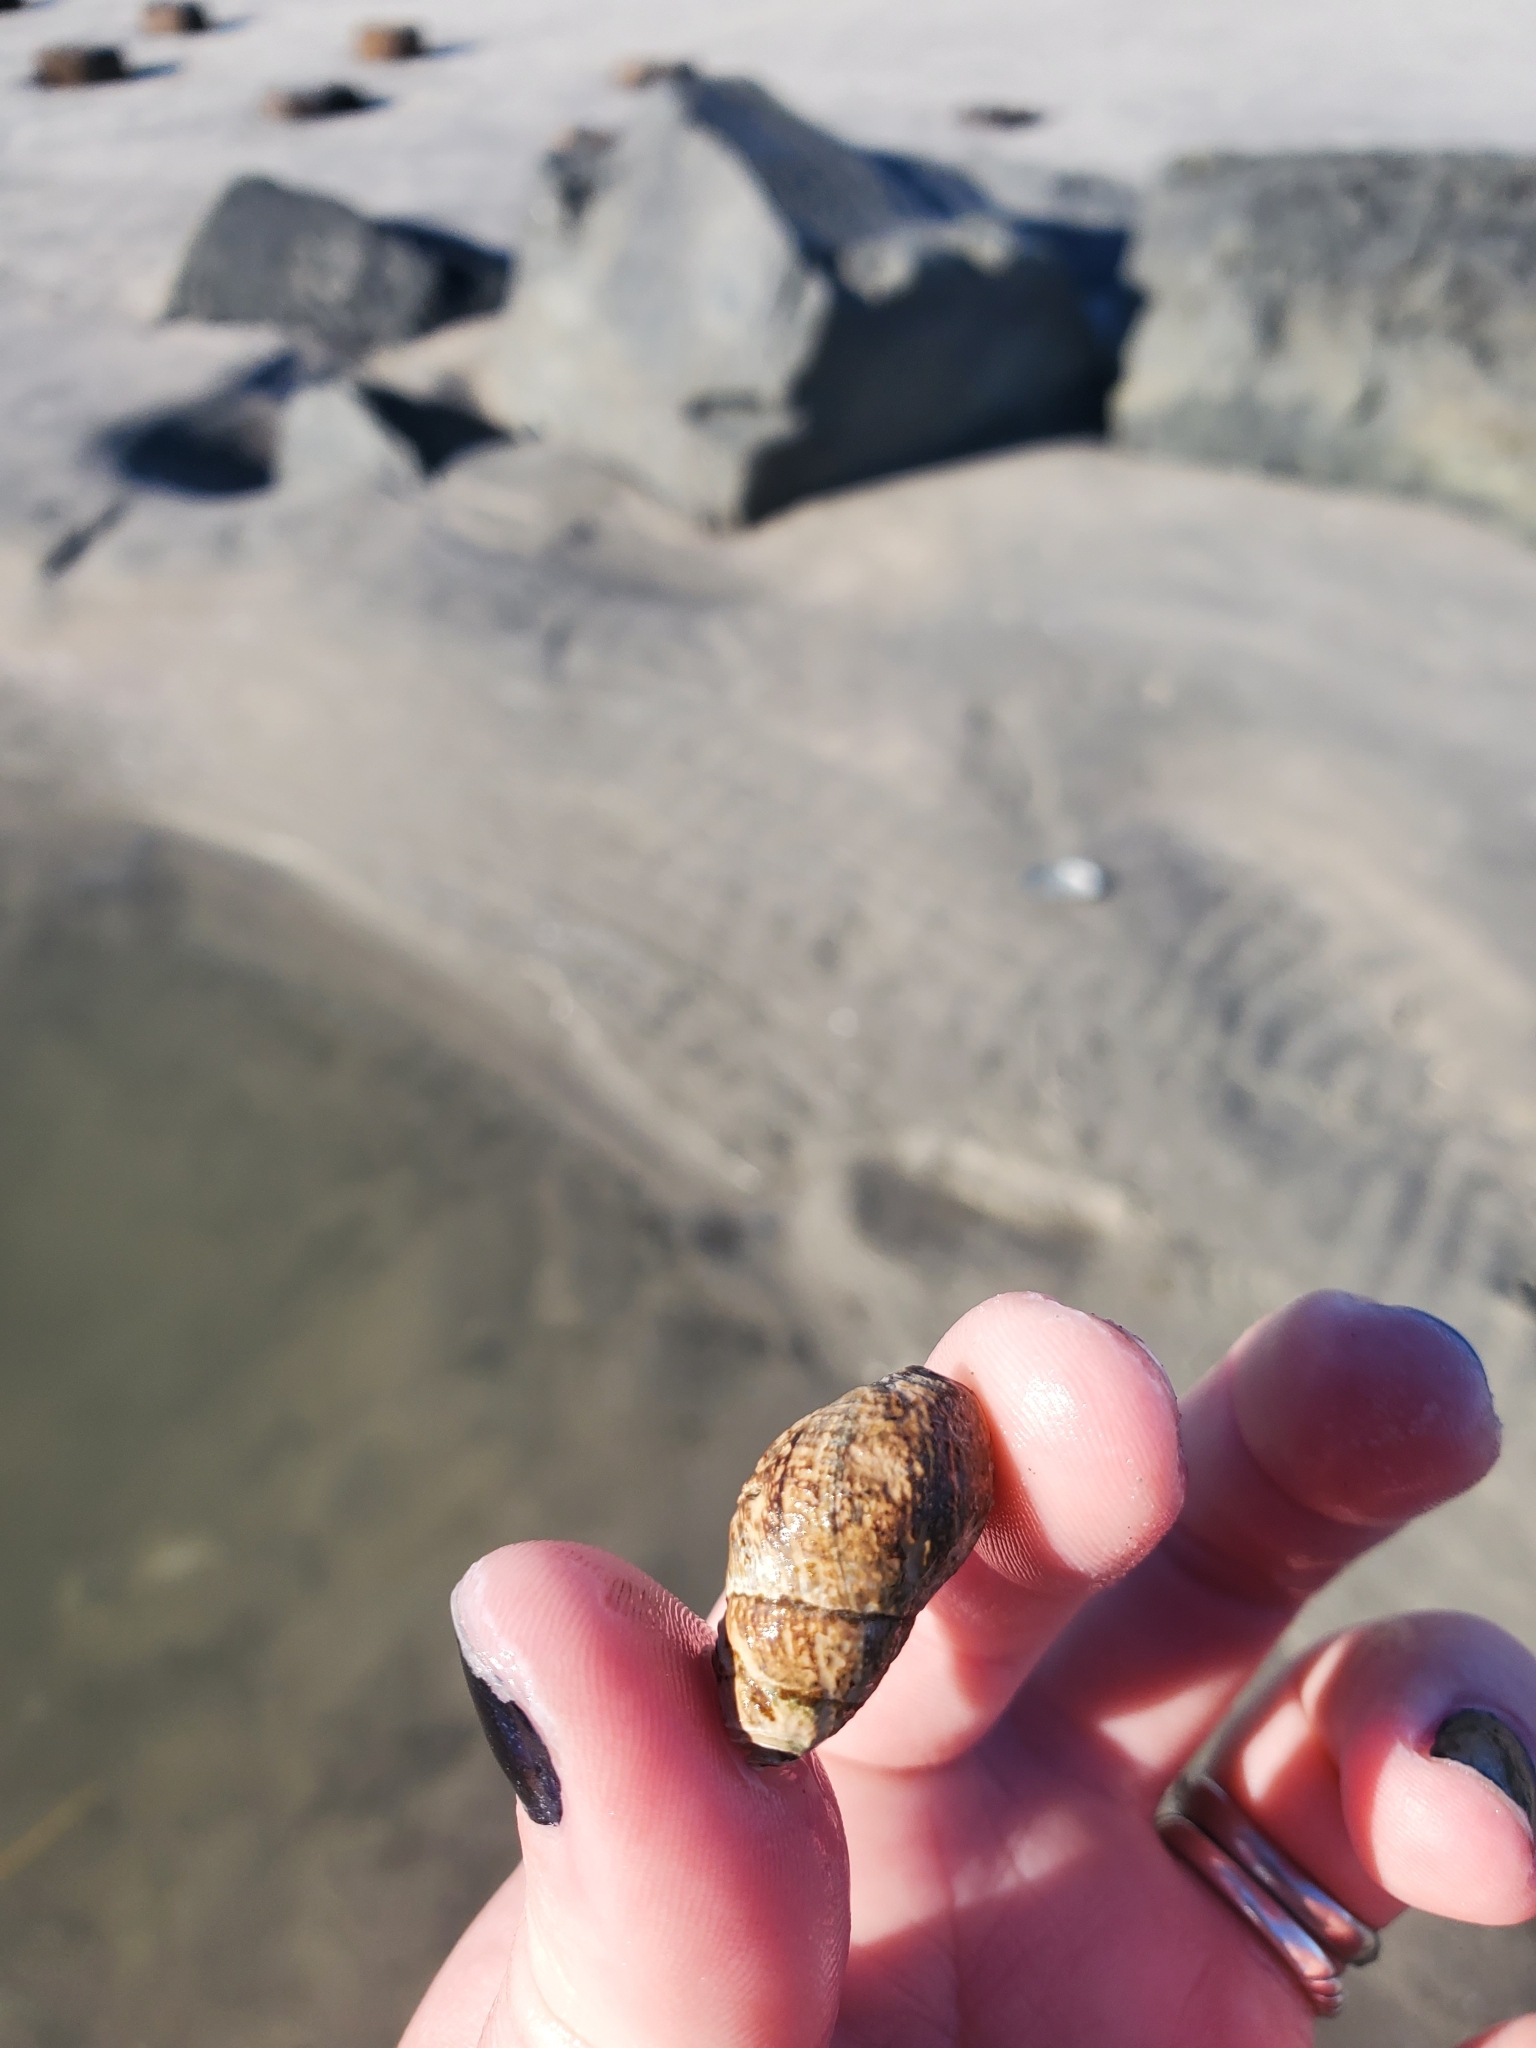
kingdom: Animalia
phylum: Arthropoda
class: Malacostraca
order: Decapoda
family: Paguridae
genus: Pagurus
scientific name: Pagurus longicarpus
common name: Long-armed hermit crab
